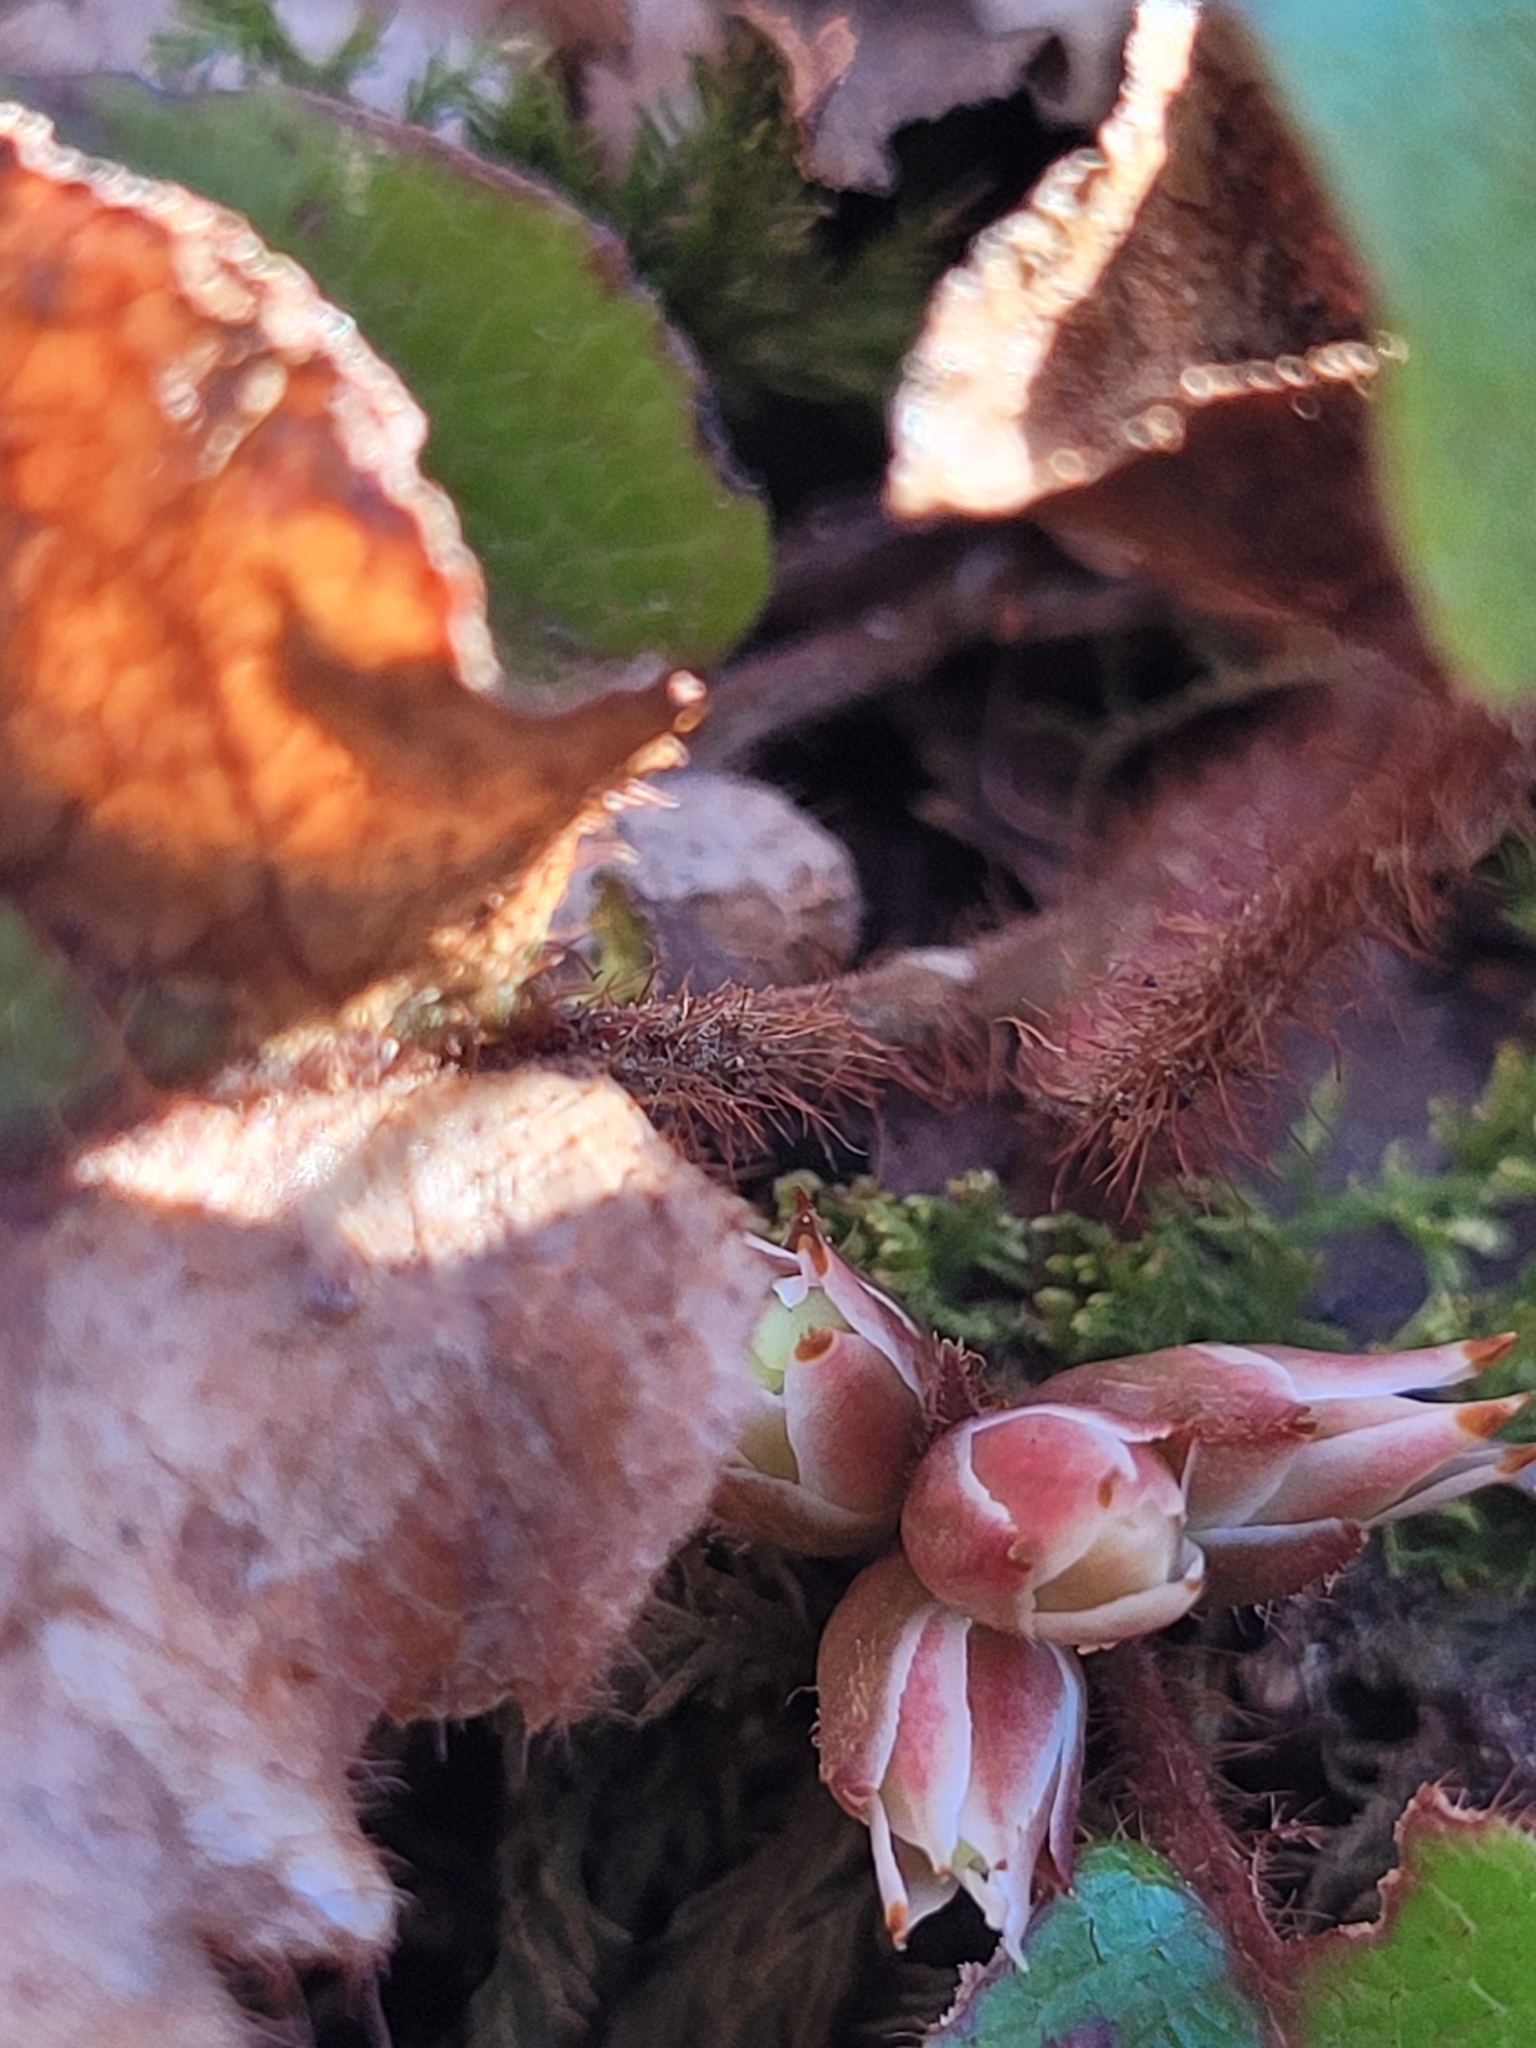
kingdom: Plantae
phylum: Tracheophyta
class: Magnoliopsida
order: Ericales
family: Ericaceae
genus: Epigaea
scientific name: Epigaea repens
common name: Gravelroot
